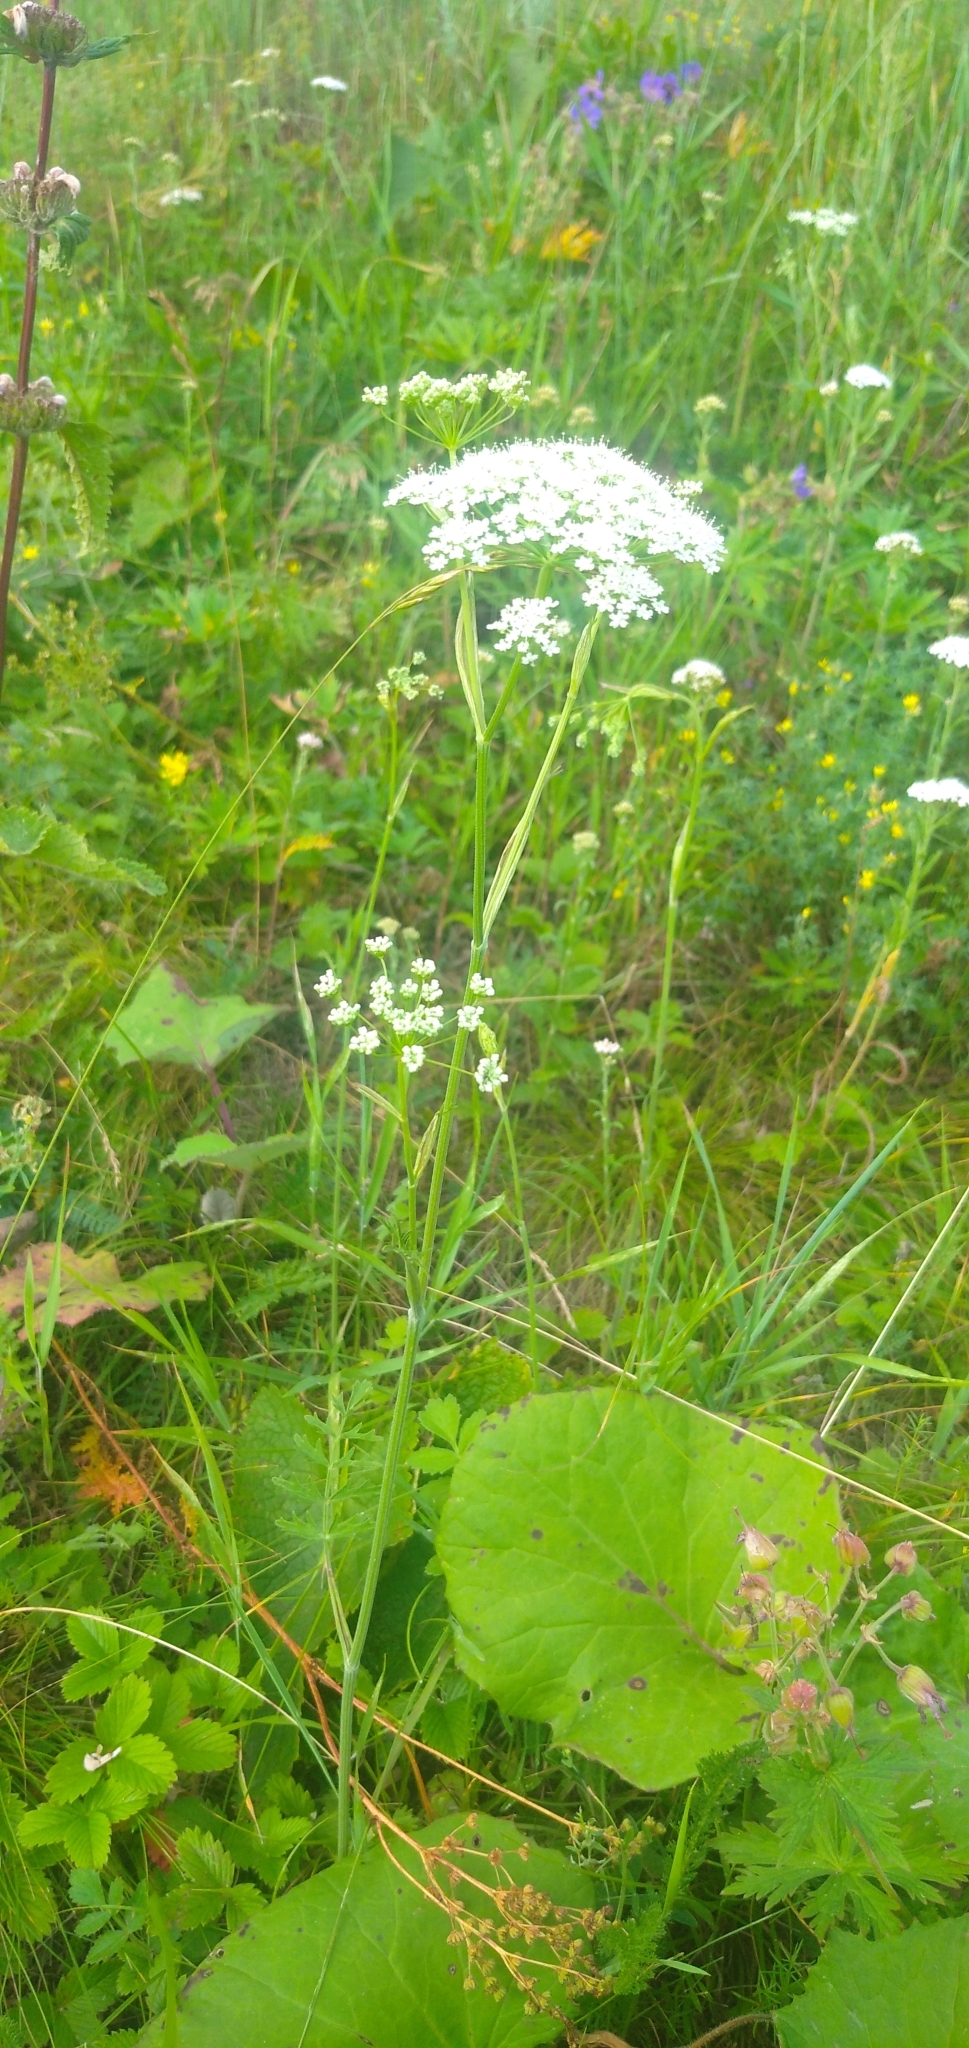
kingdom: Plantae
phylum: Tracheophyta
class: Magnoliopsida
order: Apiales
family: Apiaceae
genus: Pimpinella
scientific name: Pimpinella saxifraga
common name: Burnet-saxifrage
